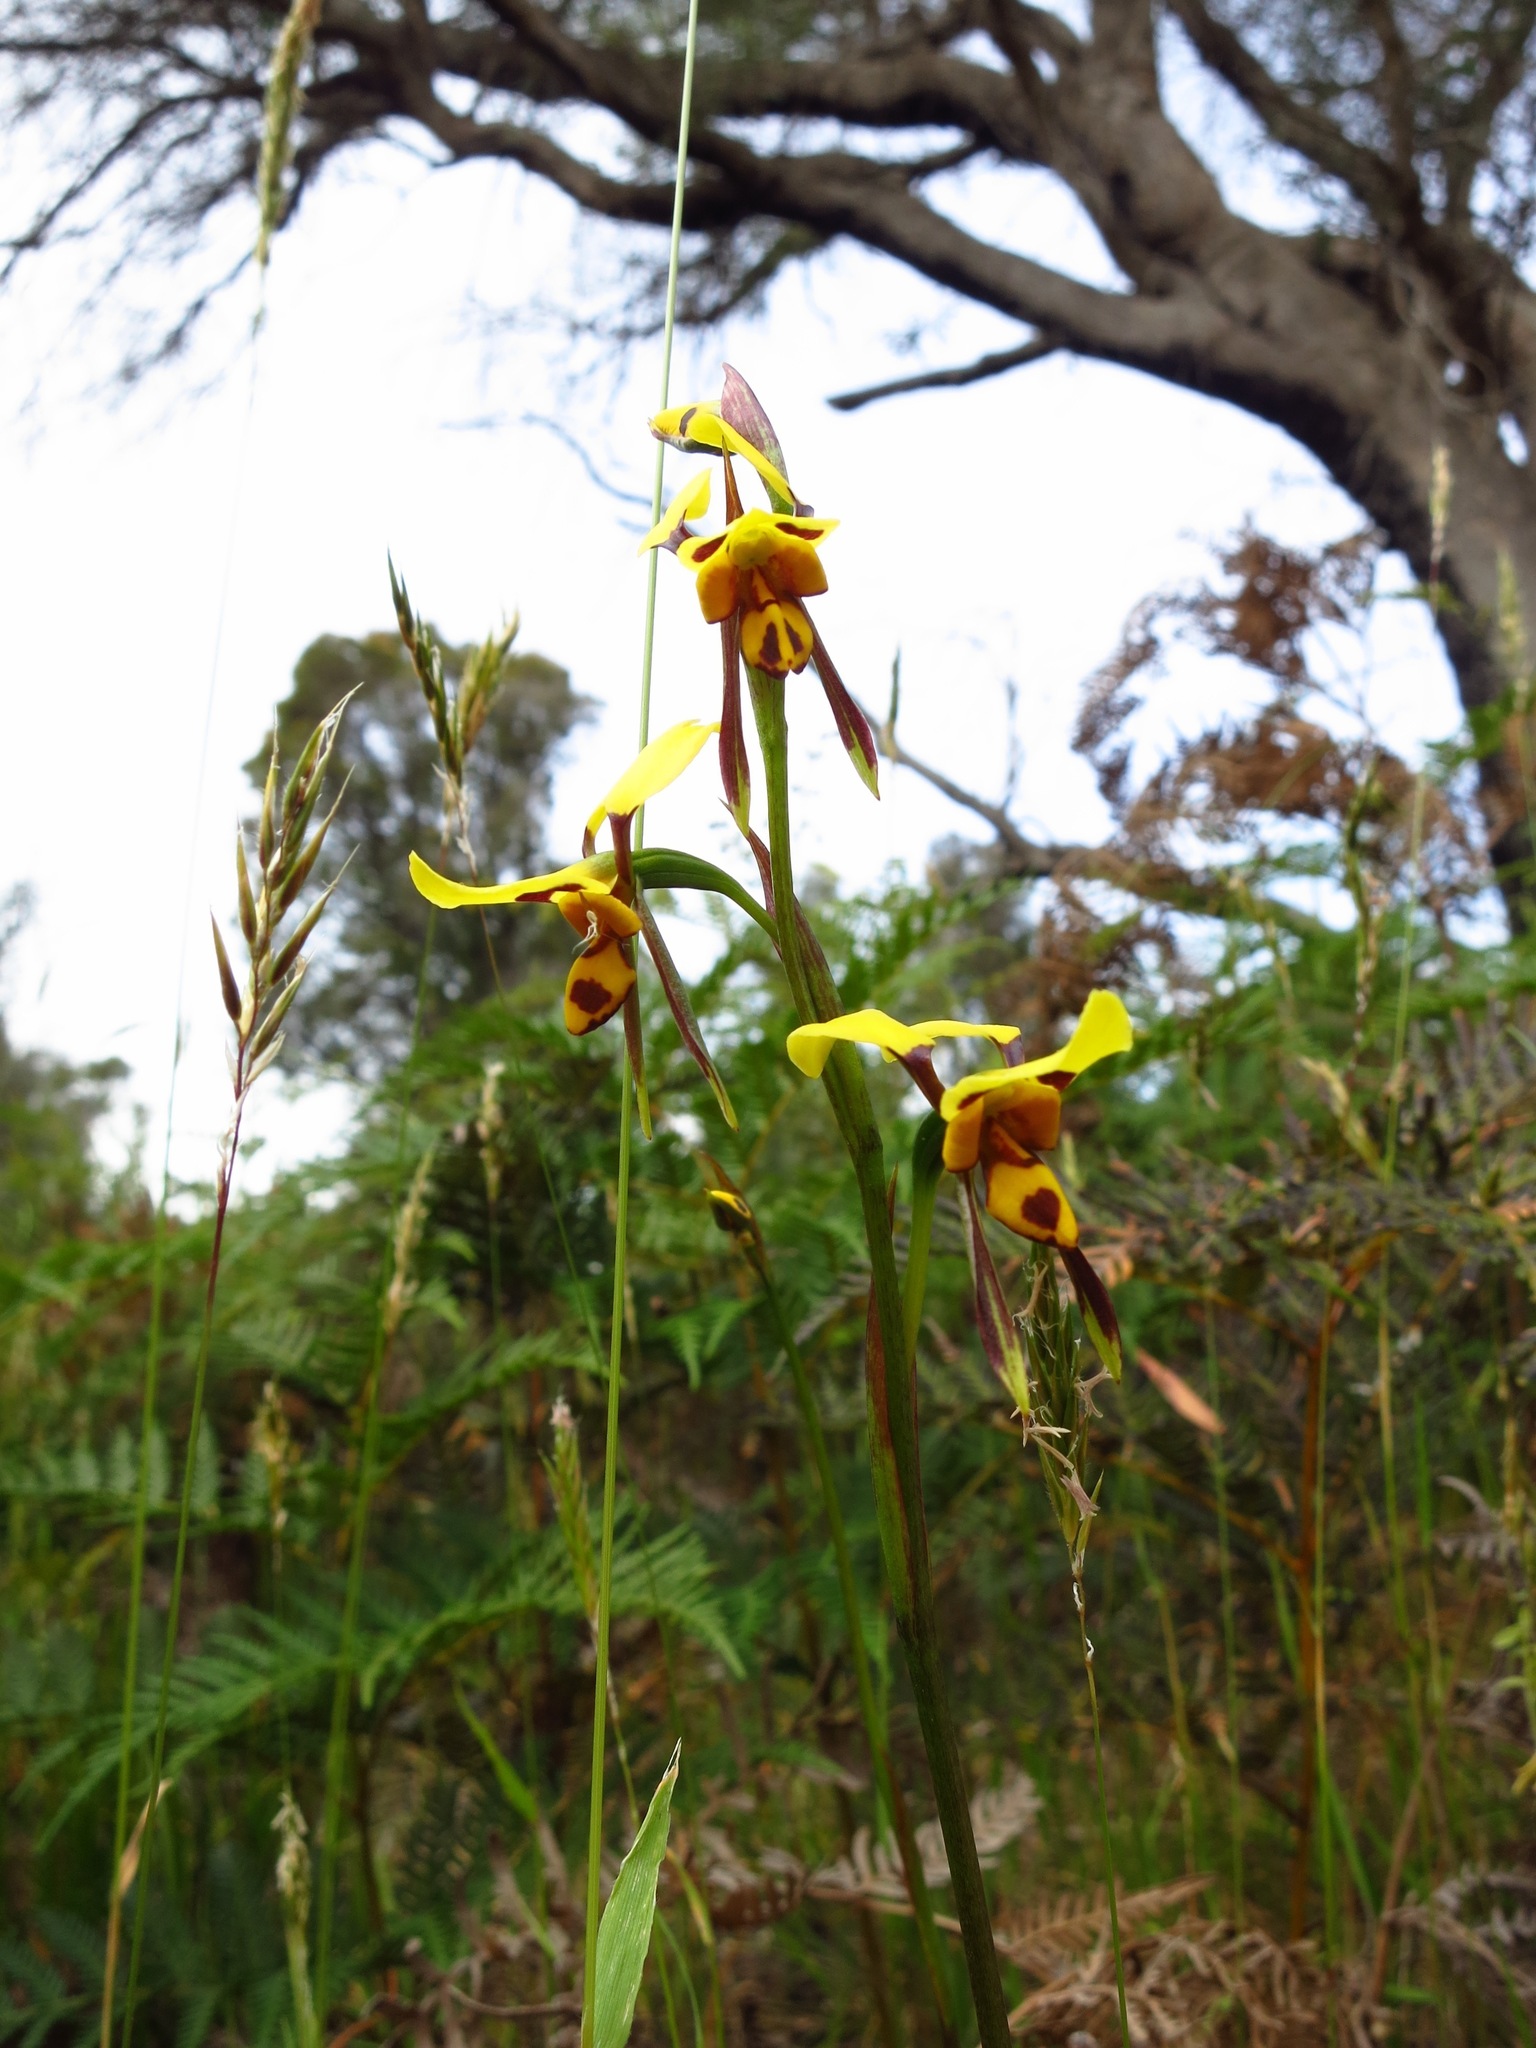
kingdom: Plantae
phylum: Tracheophyta
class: Liliopsida
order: Asparagales
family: Orchidaceae
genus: Diuris
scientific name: Diuris sulphurea
